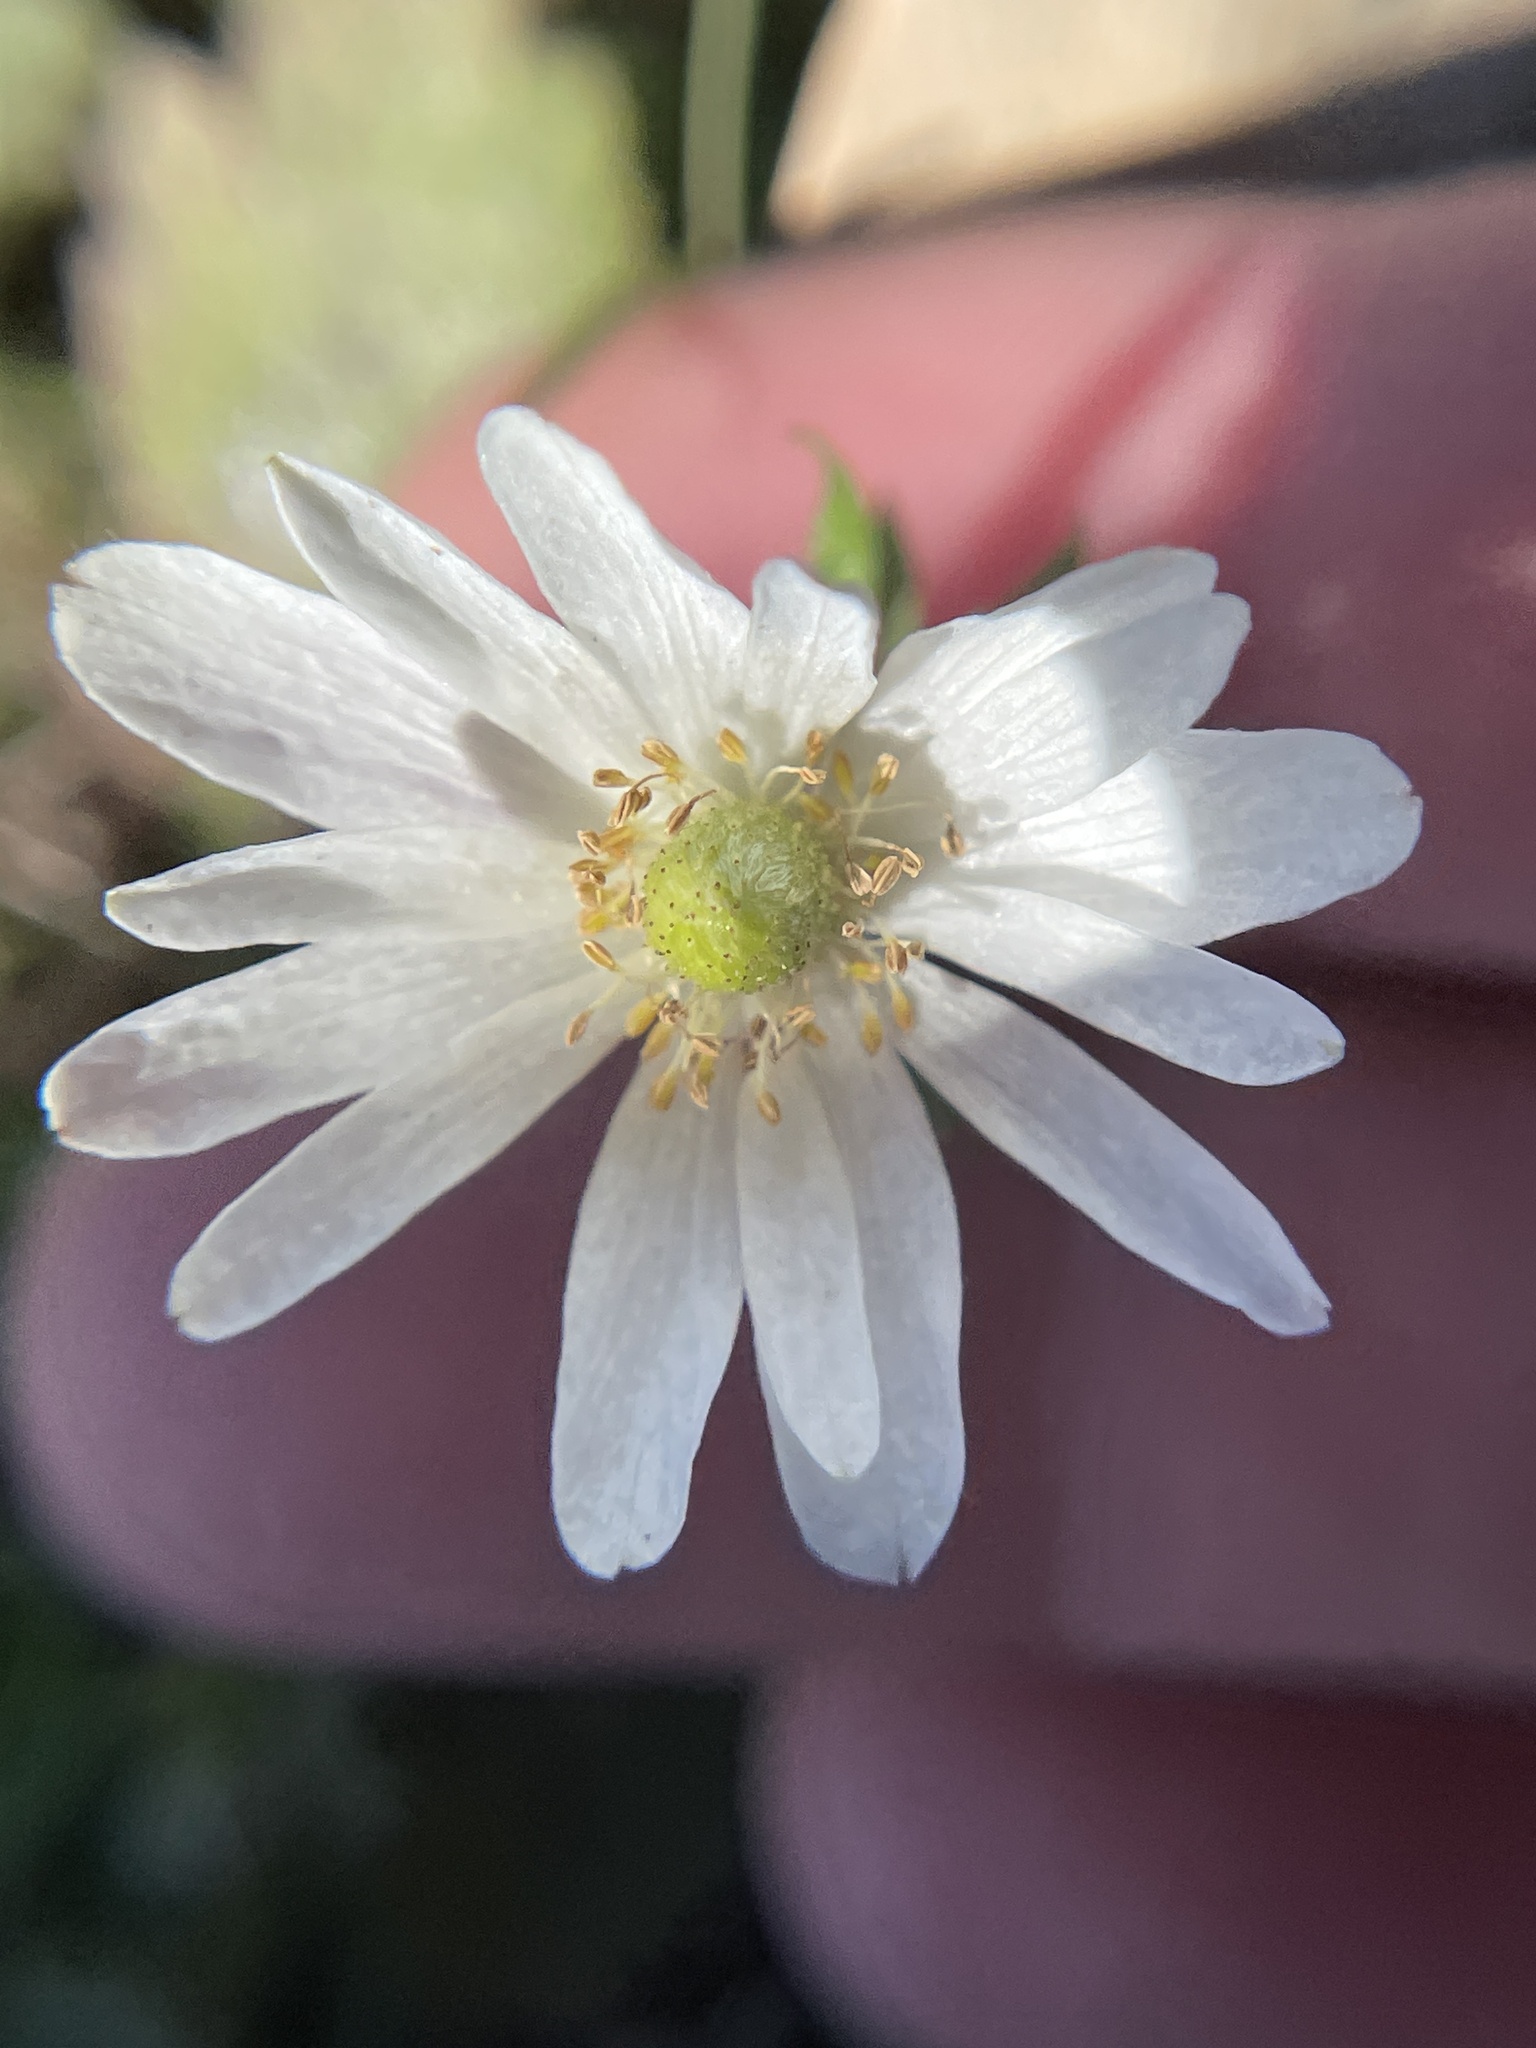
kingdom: Plantae
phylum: Tracheophyta
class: Magnoliopsida
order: Ranunculales
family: Ranunculaceae
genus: Anemone
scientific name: Anemone berlandieri
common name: Ten-petal anemone
